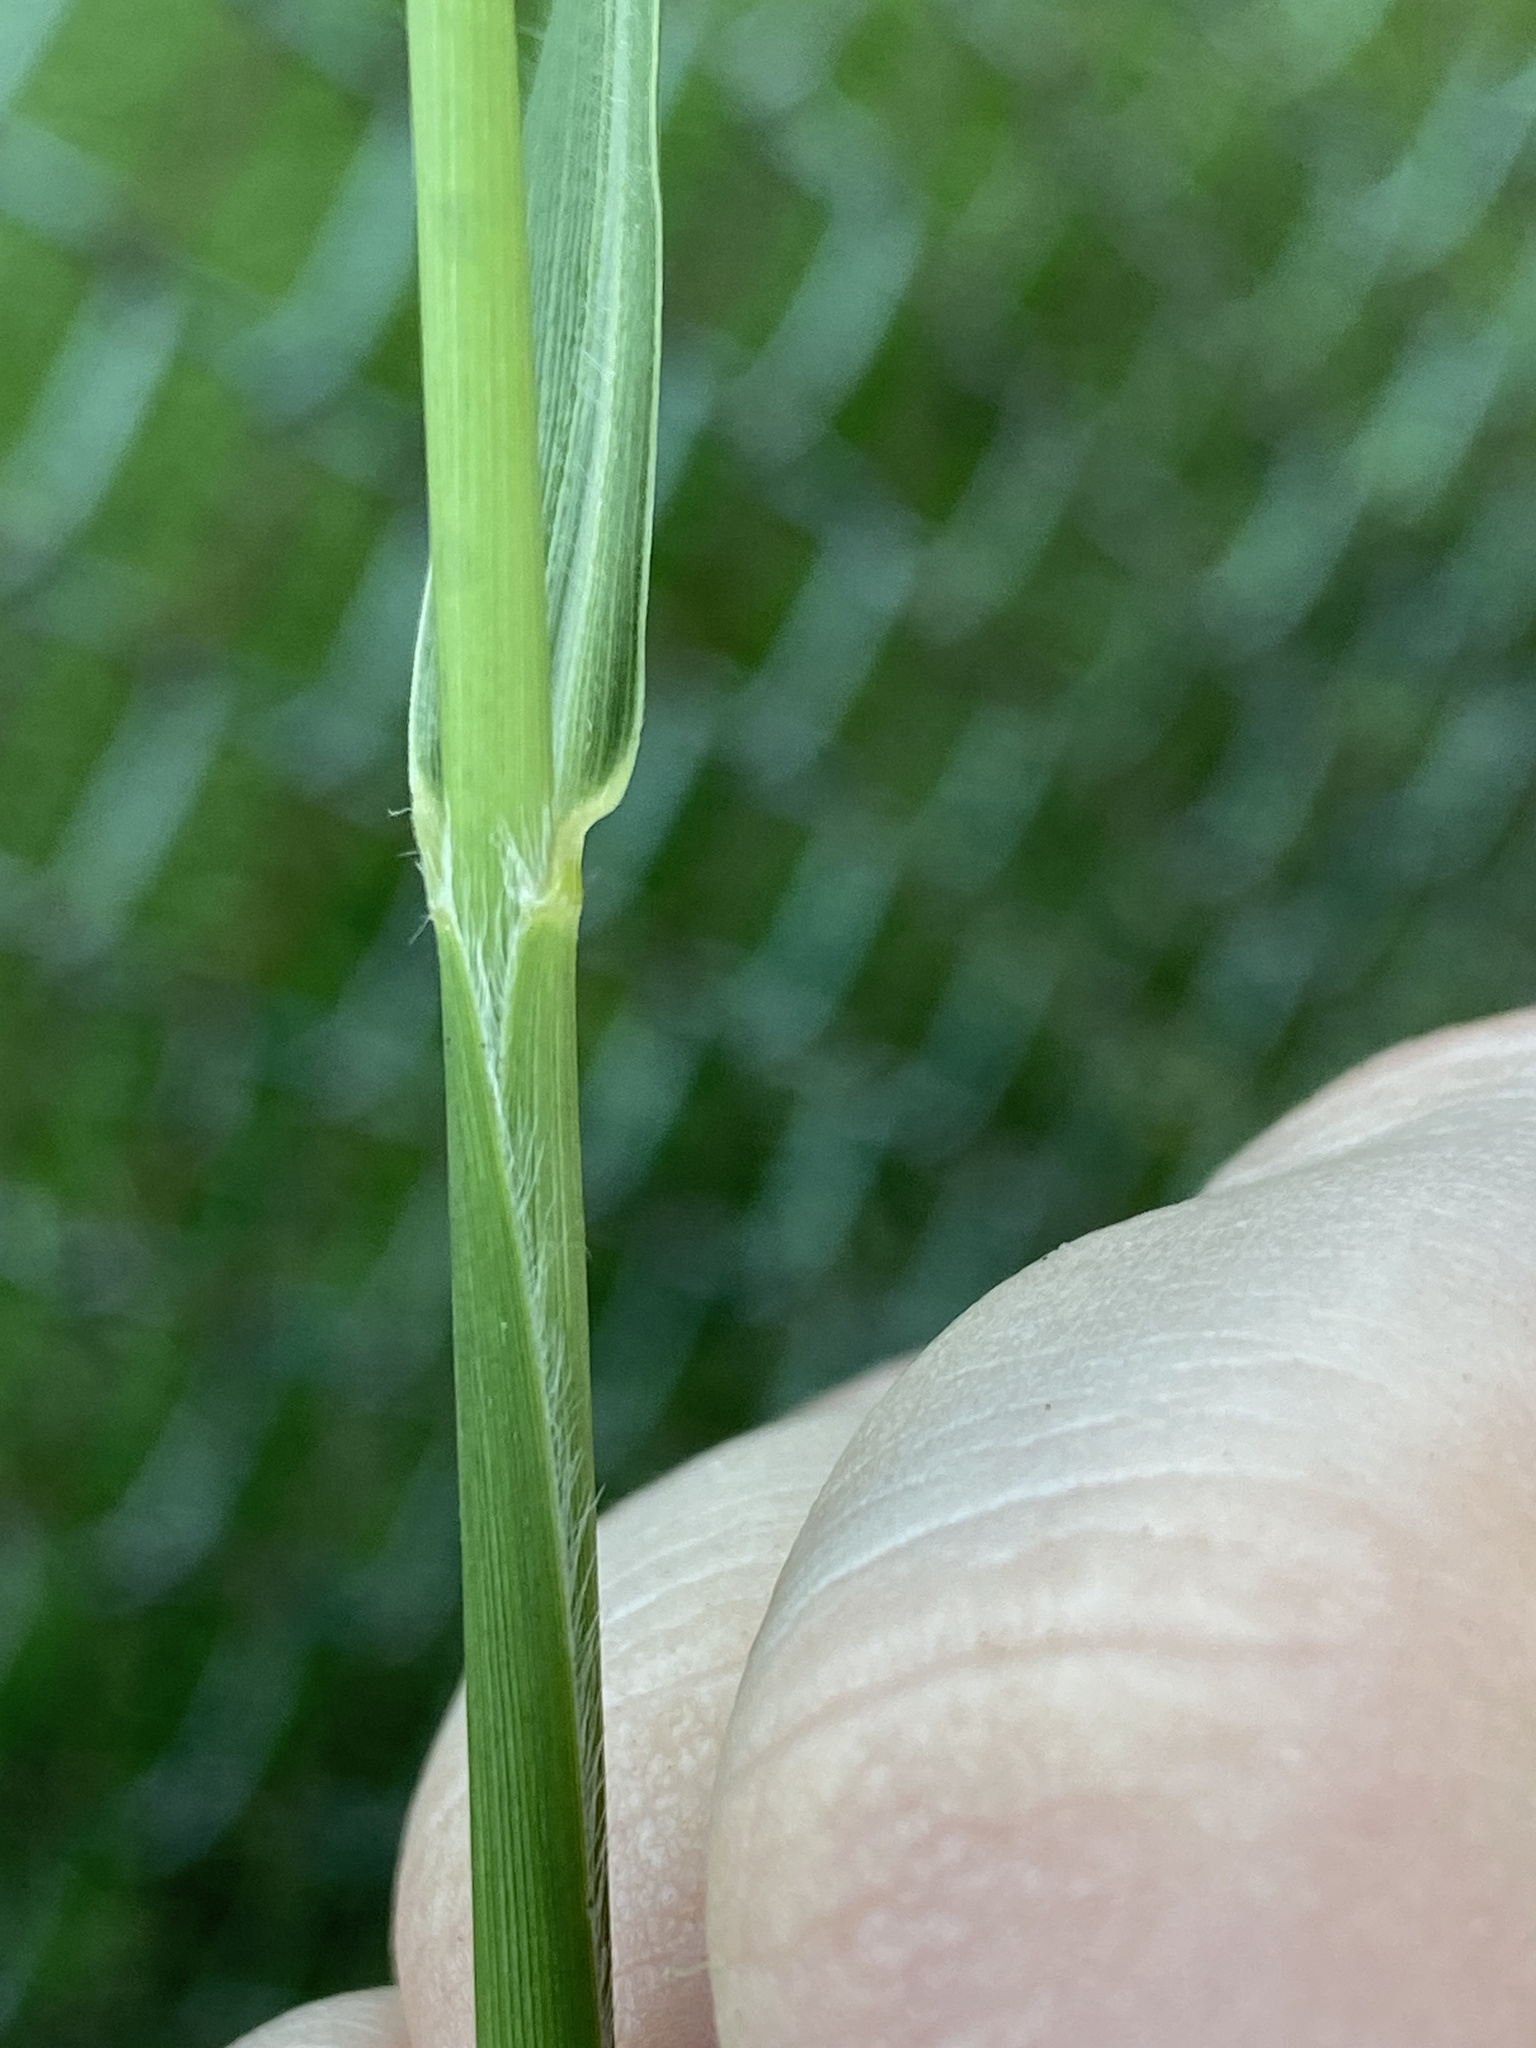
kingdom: Plantae
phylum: Tracheophyta
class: Liliopsida
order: Poales
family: Poaceae
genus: Setaria
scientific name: Setaria faberi
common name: Nodding bristle-grass
